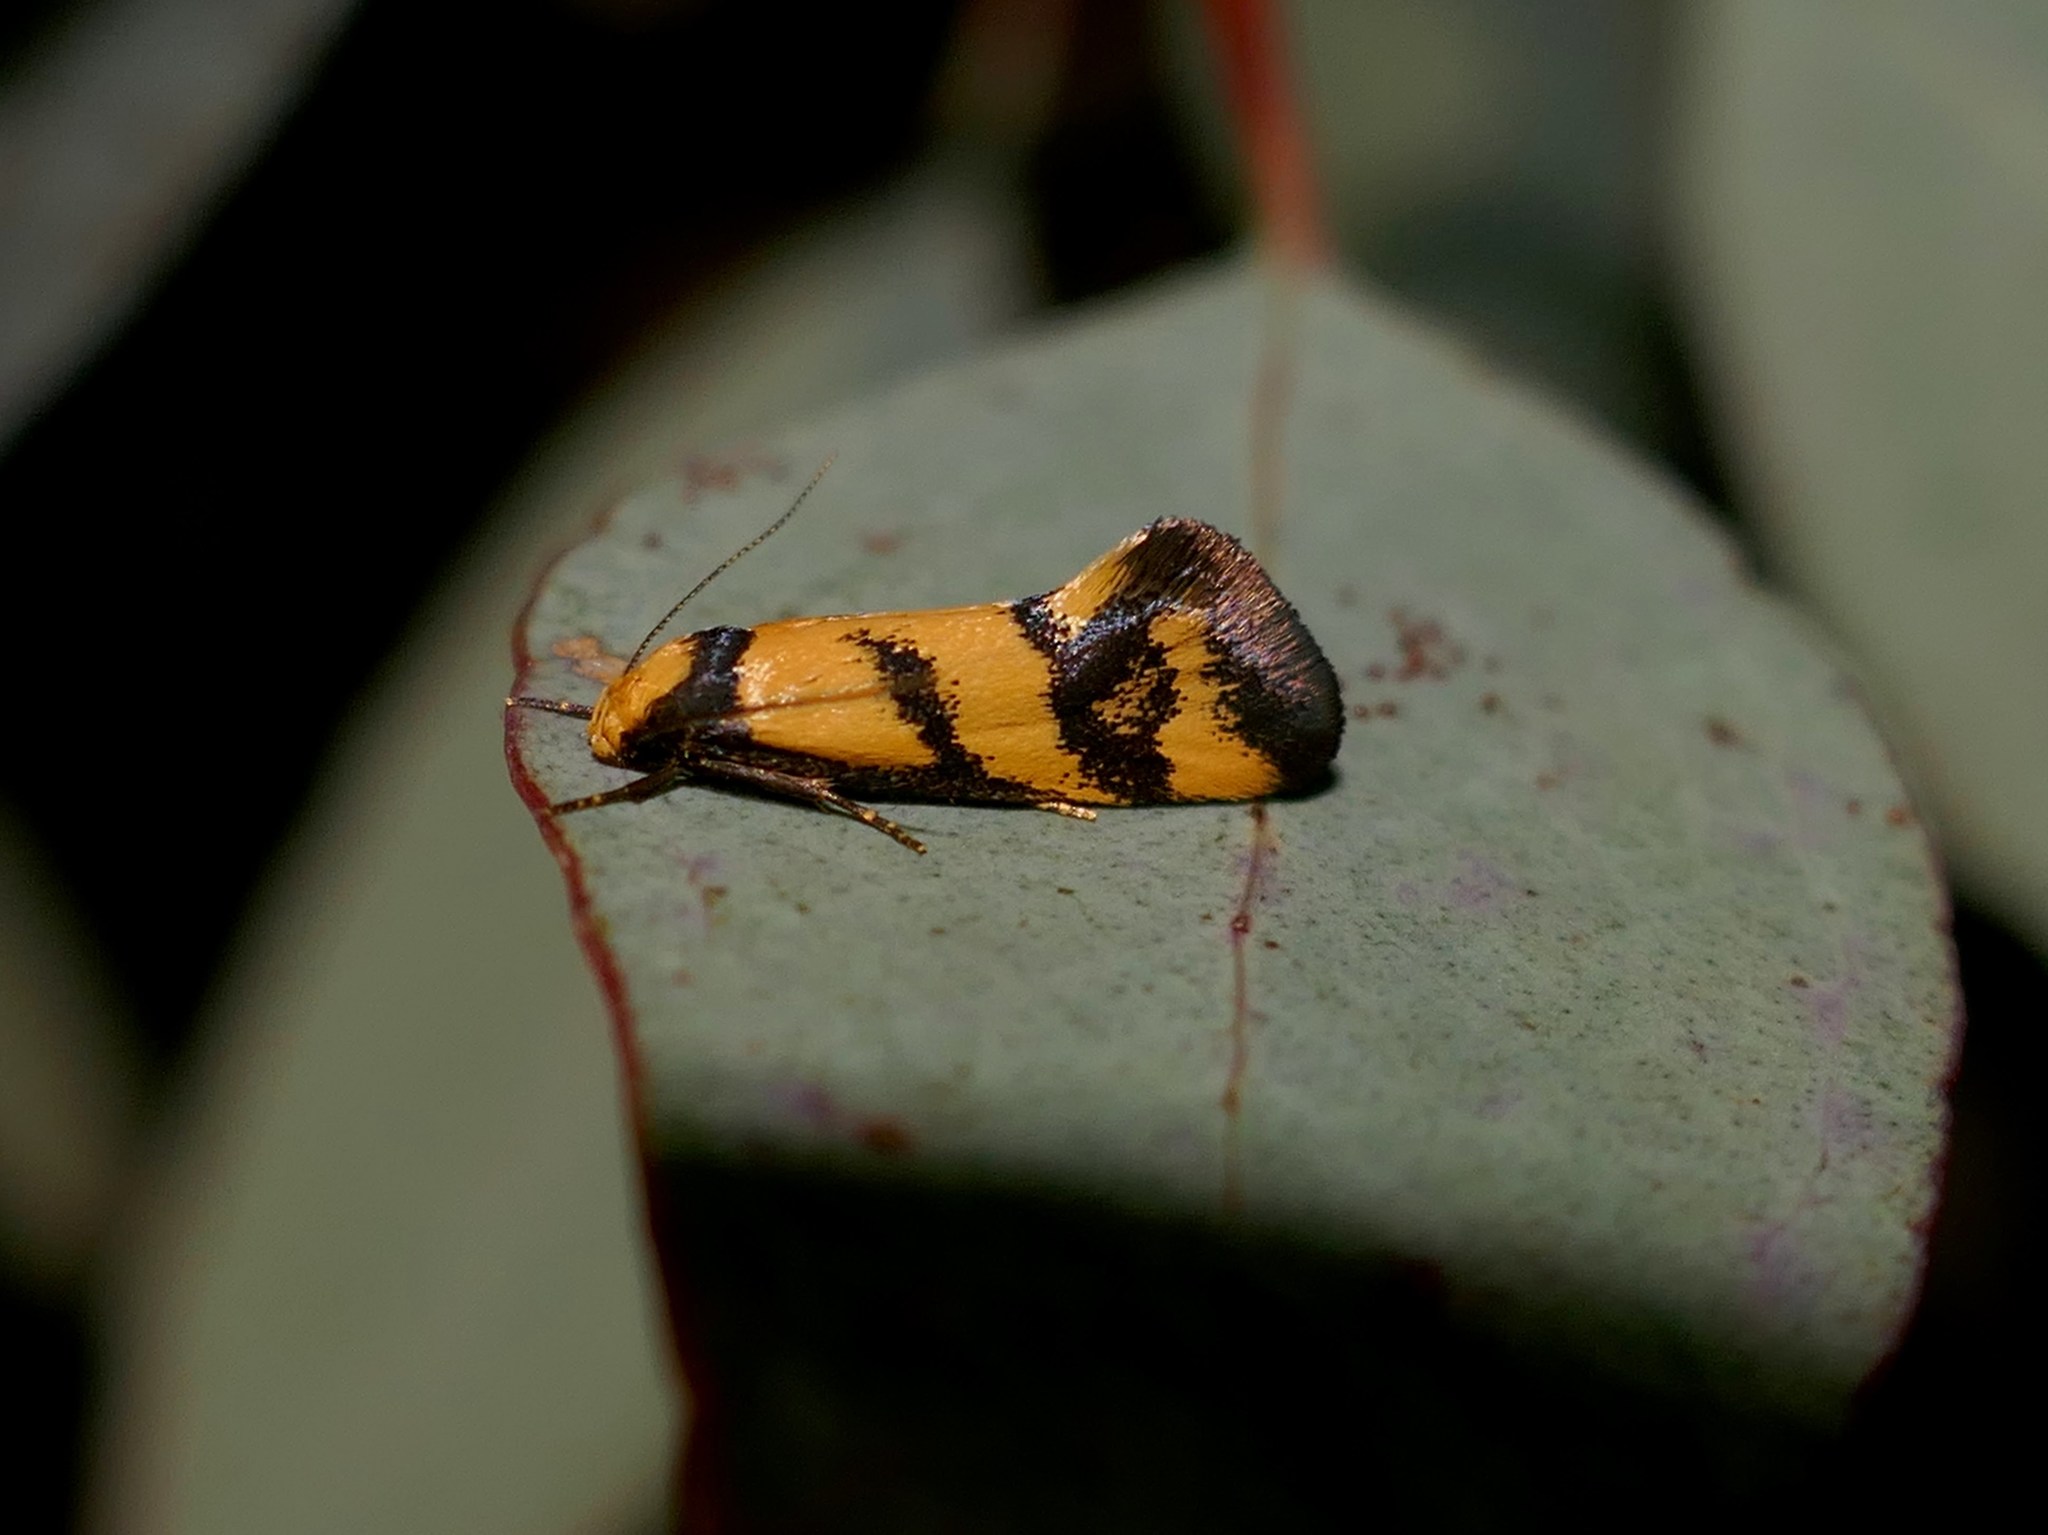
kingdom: Animalia
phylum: Arthropoda
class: Insecta
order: Lepidoptera
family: Oecophoridae
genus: Olbonoma
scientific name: Olbonoma triptycha
